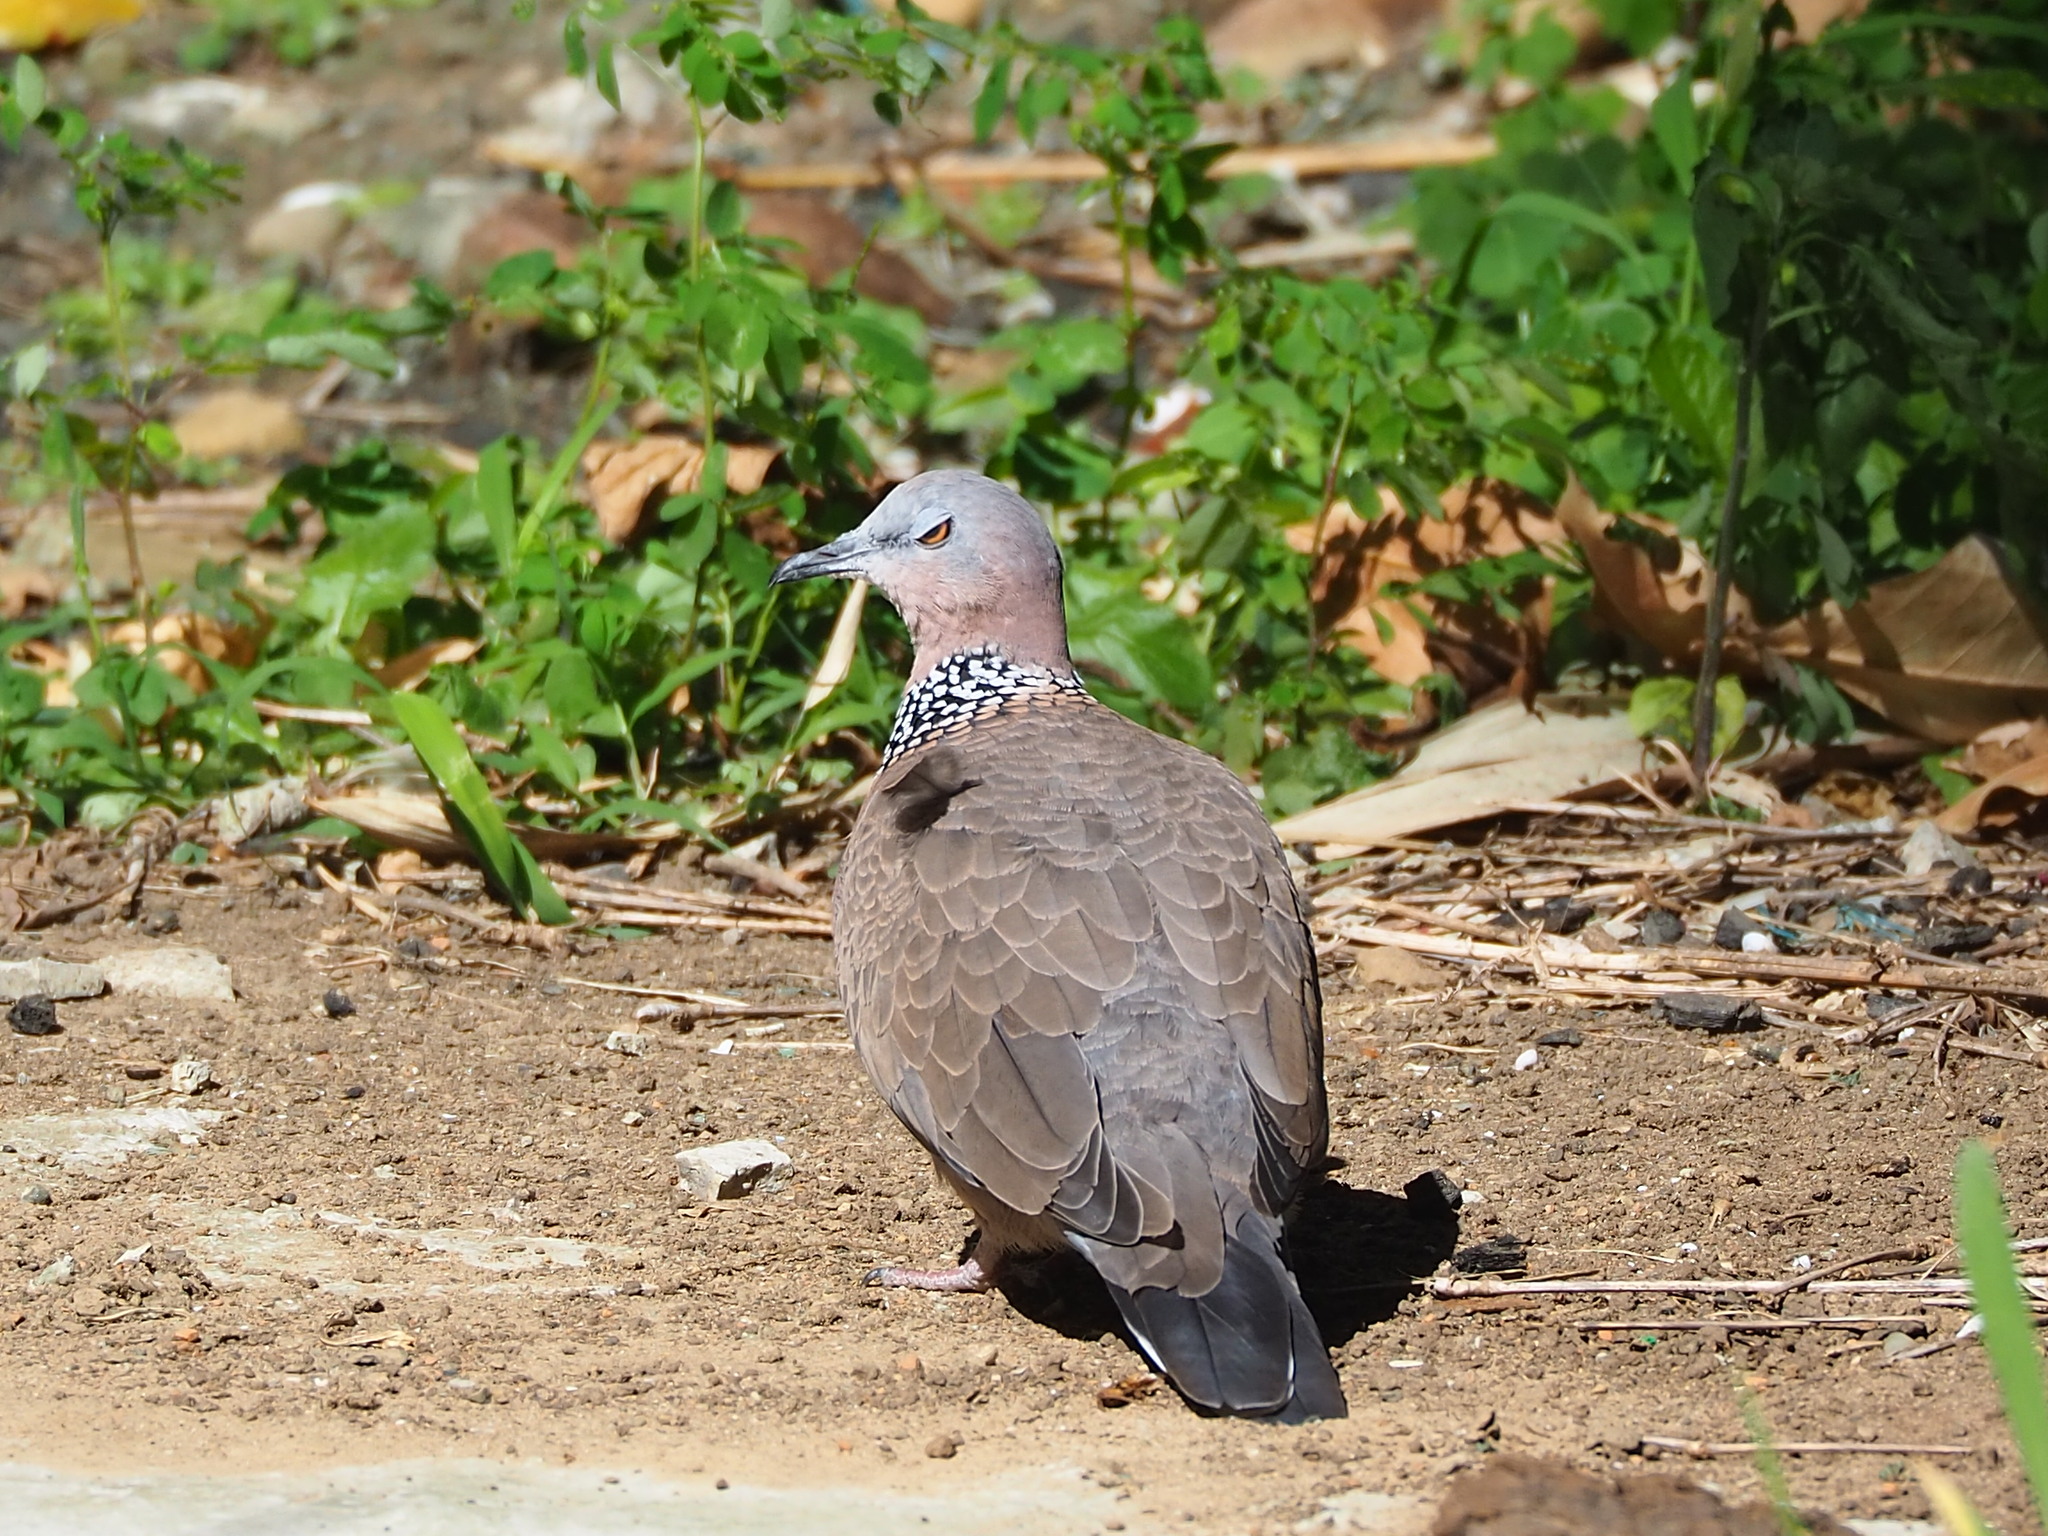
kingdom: Animalia
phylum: Chordata
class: Aves
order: Columbiformes
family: Columbidae
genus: Spilopelia
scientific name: Spilopelia chinensis
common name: Spotted dove
